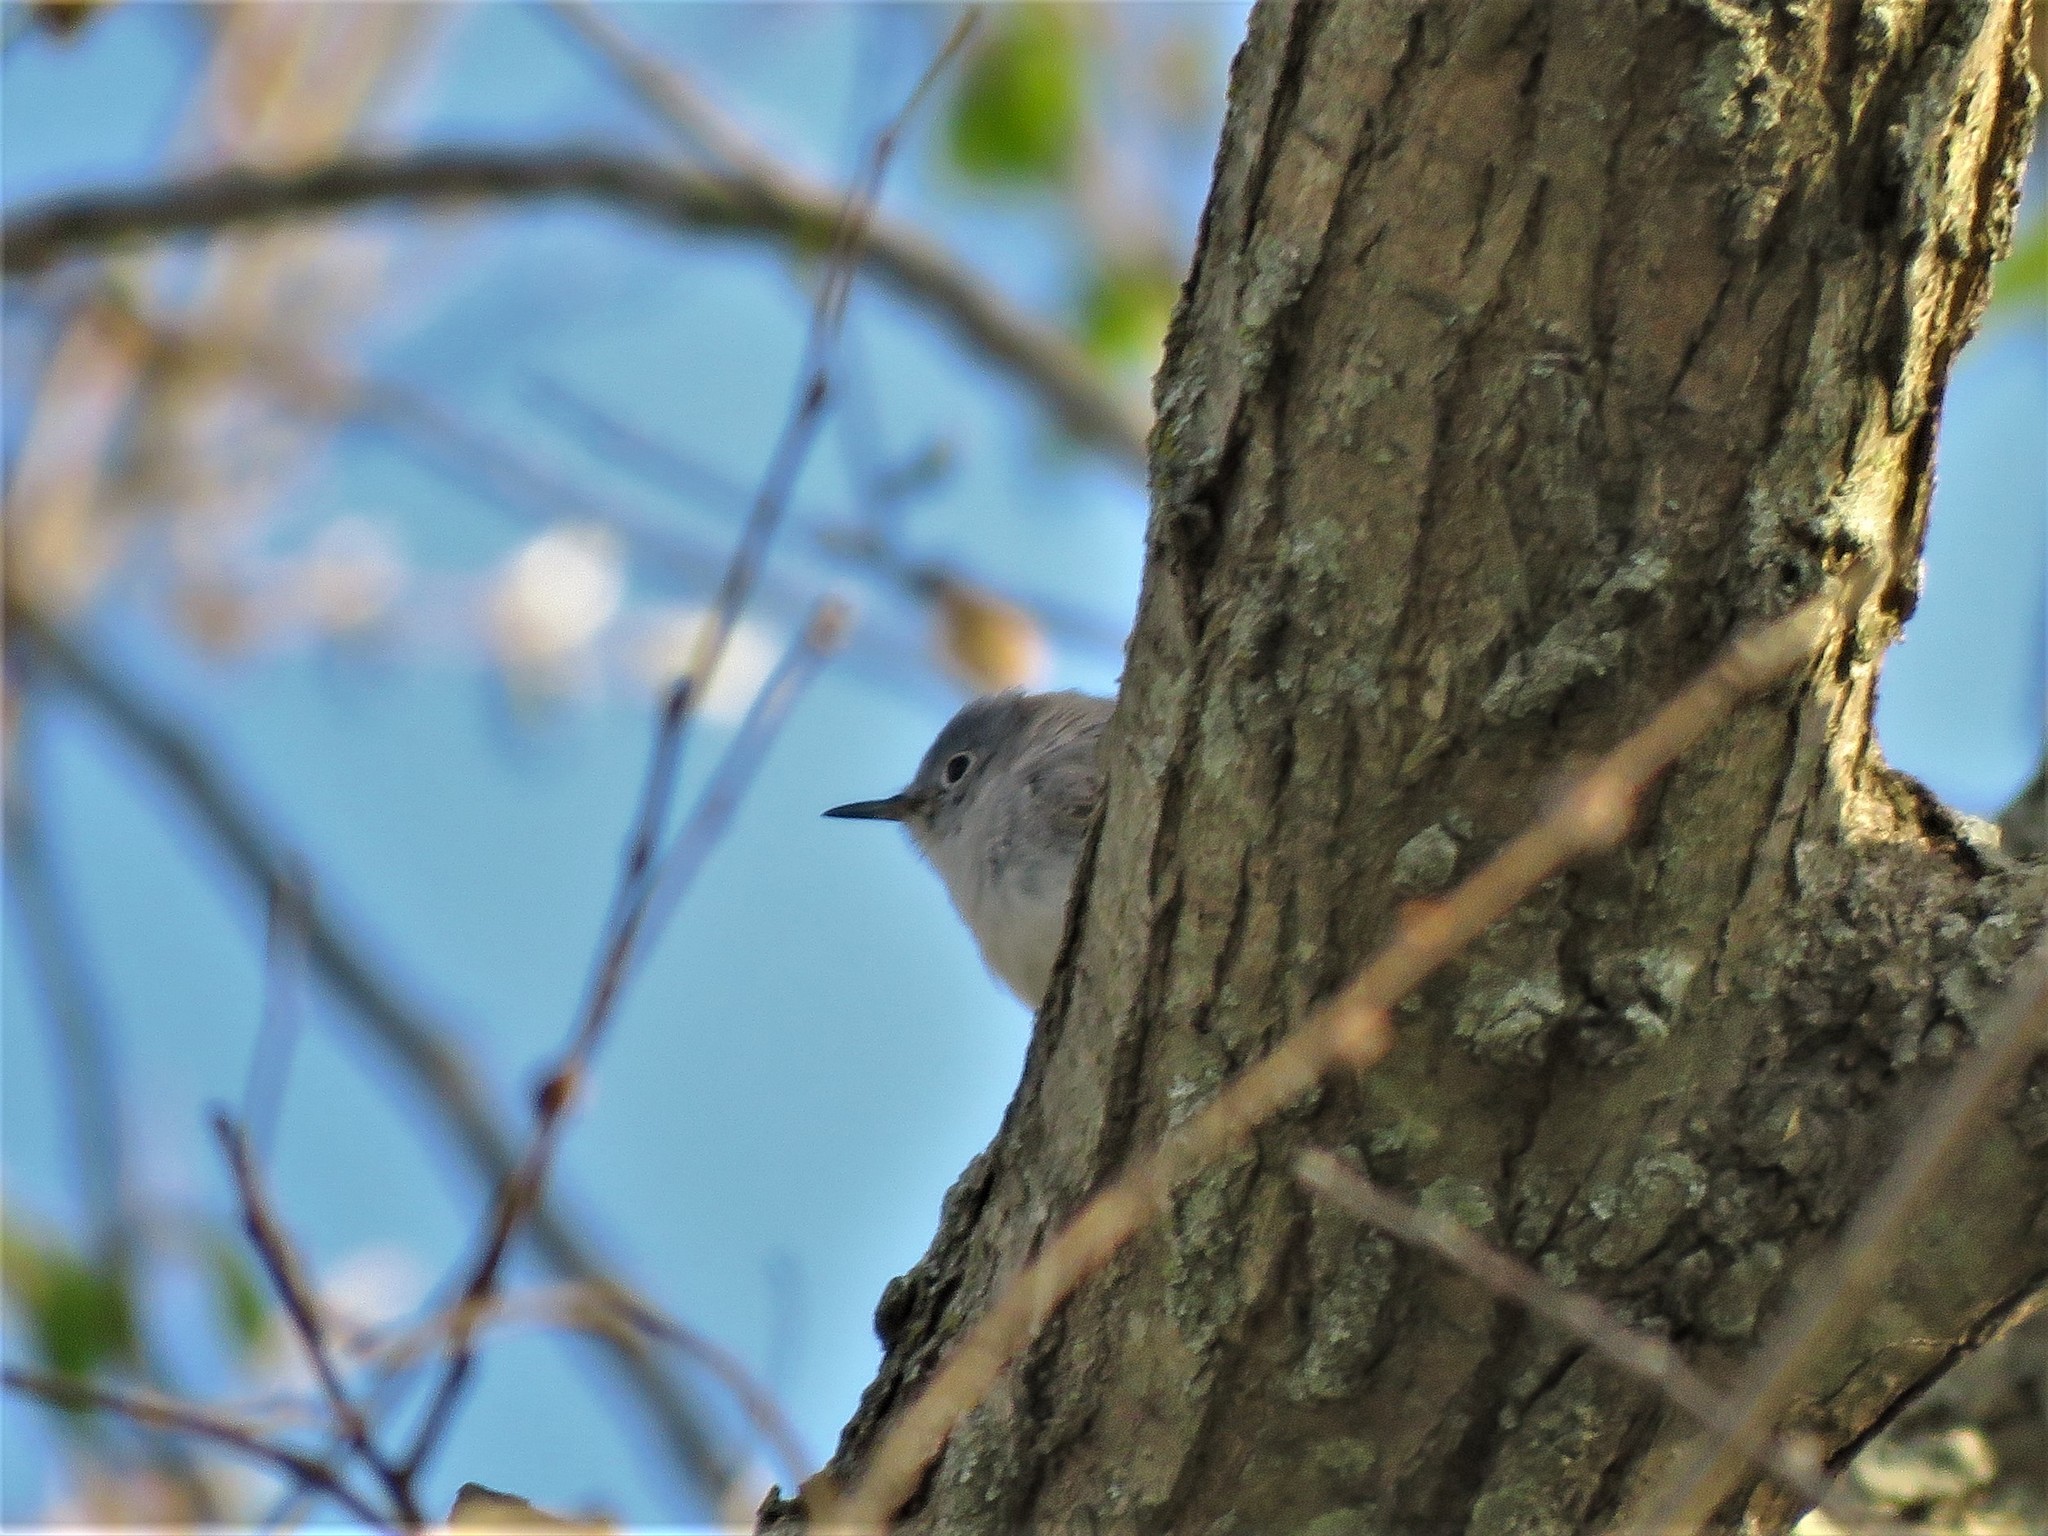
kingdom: Animalia
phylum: Chordata
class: Aves
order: Passeriformes
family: Polioptilidae
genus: Polioptila
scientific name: Polioptila caerulea
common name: Blue-gray gnatcatcher
